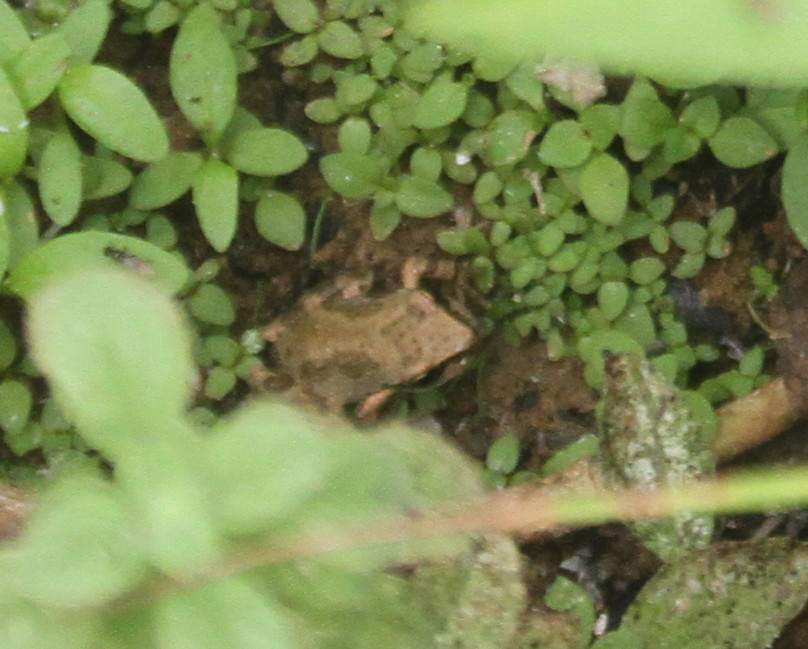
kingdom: Animalia
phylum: Chordata
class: Amphibia
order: Anura
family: Hylidae
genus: Pseudacris
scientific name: Pseudacris regilla
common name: Pacific chorus frog
